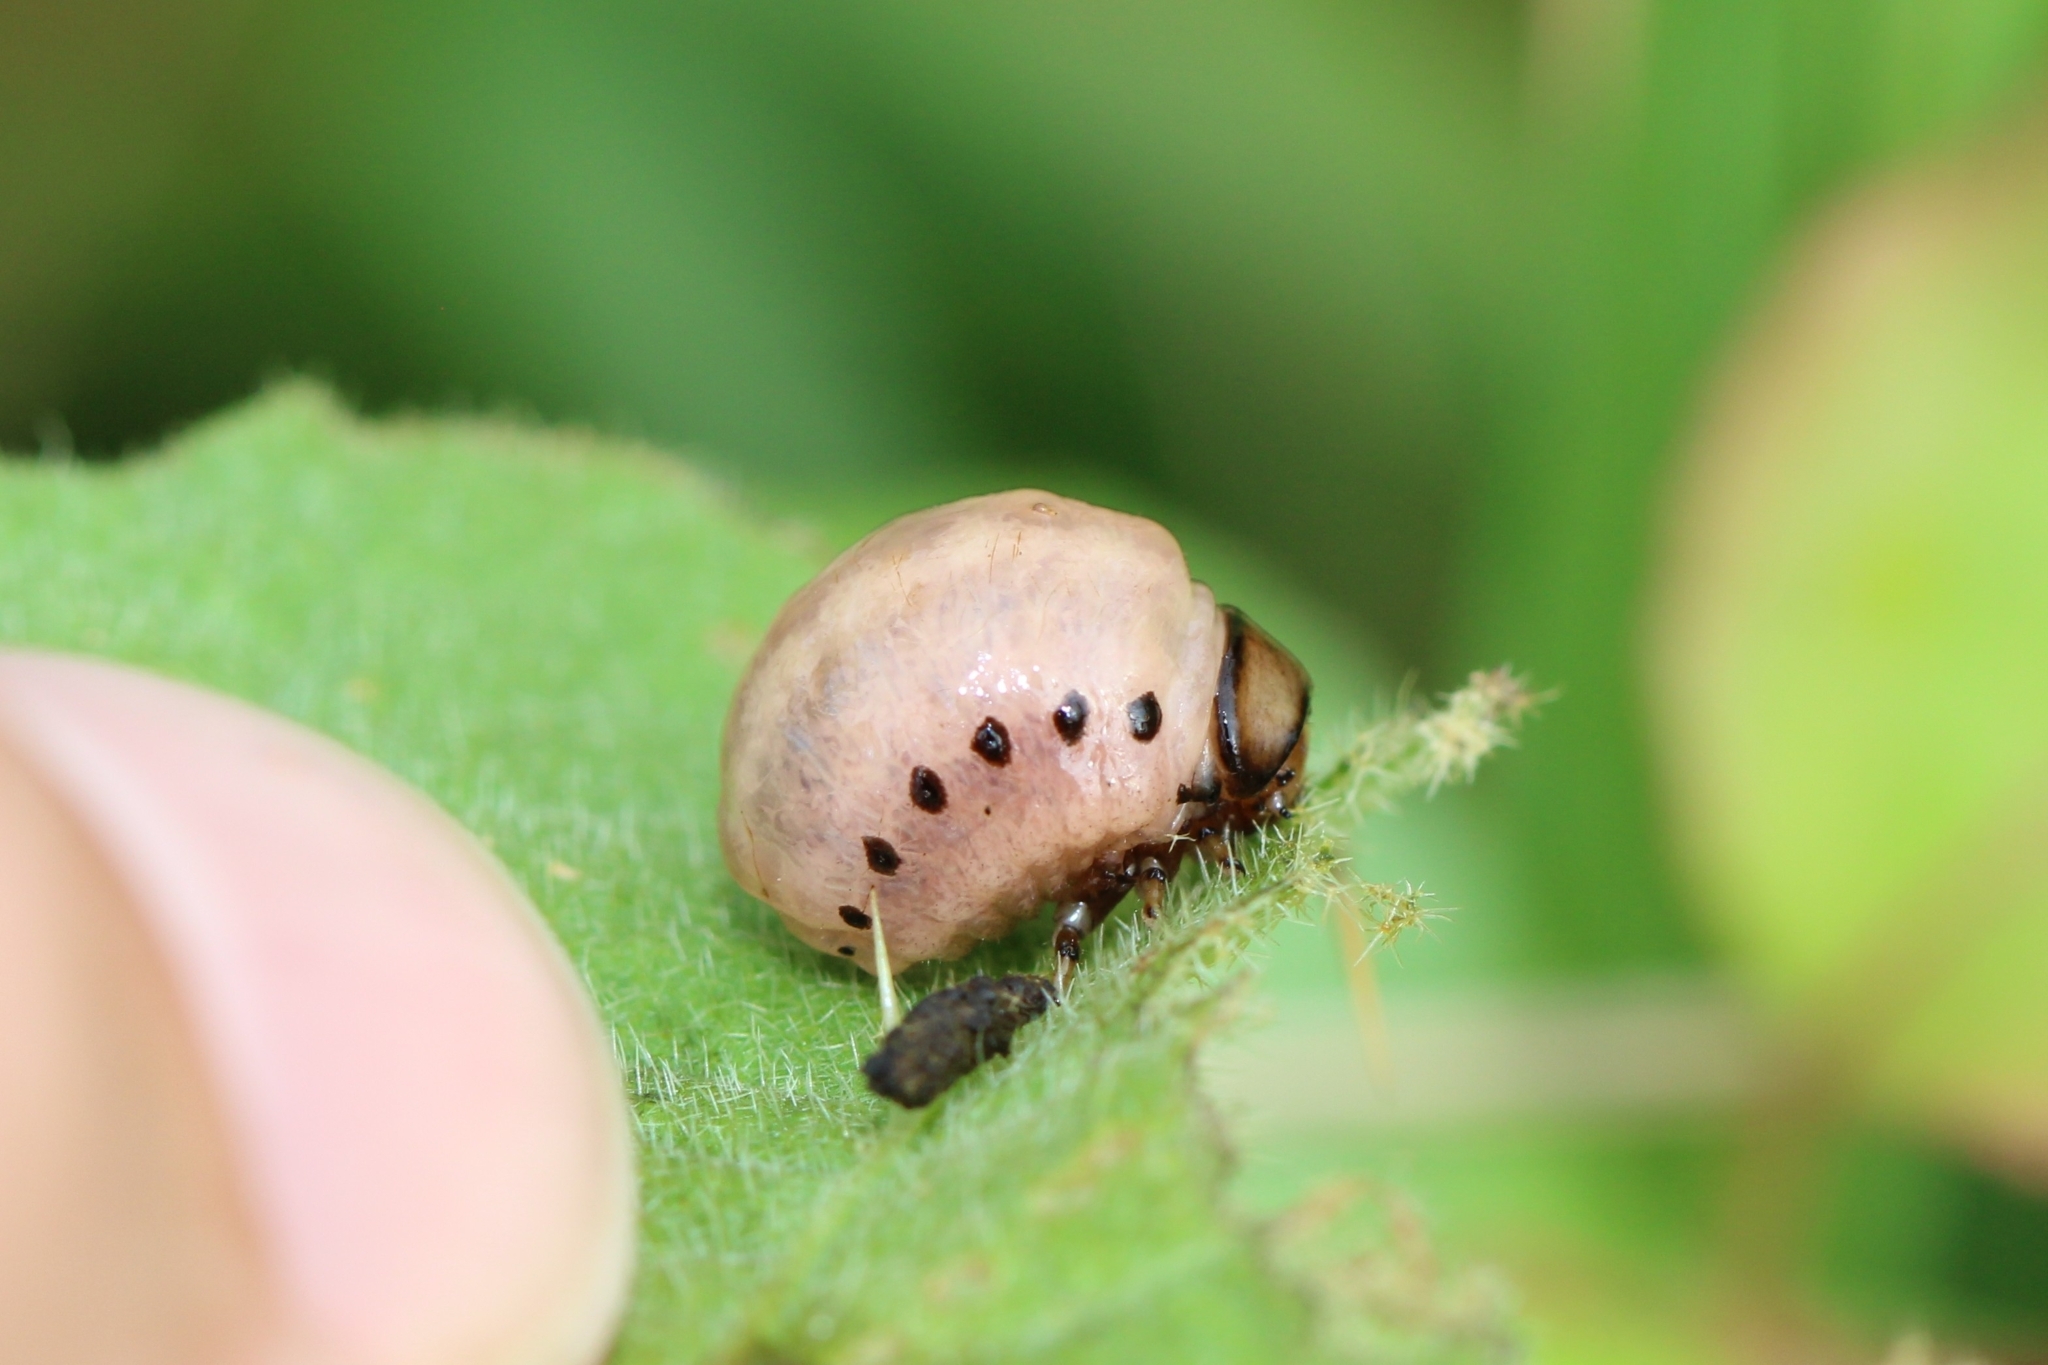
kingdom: Animalia
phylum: Arthropoda
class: Insecta
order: Coleoptera
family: Chrysomelidae
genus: Leptinotarsa
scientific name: Leptinotarsa juncta
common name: False potato beetle
